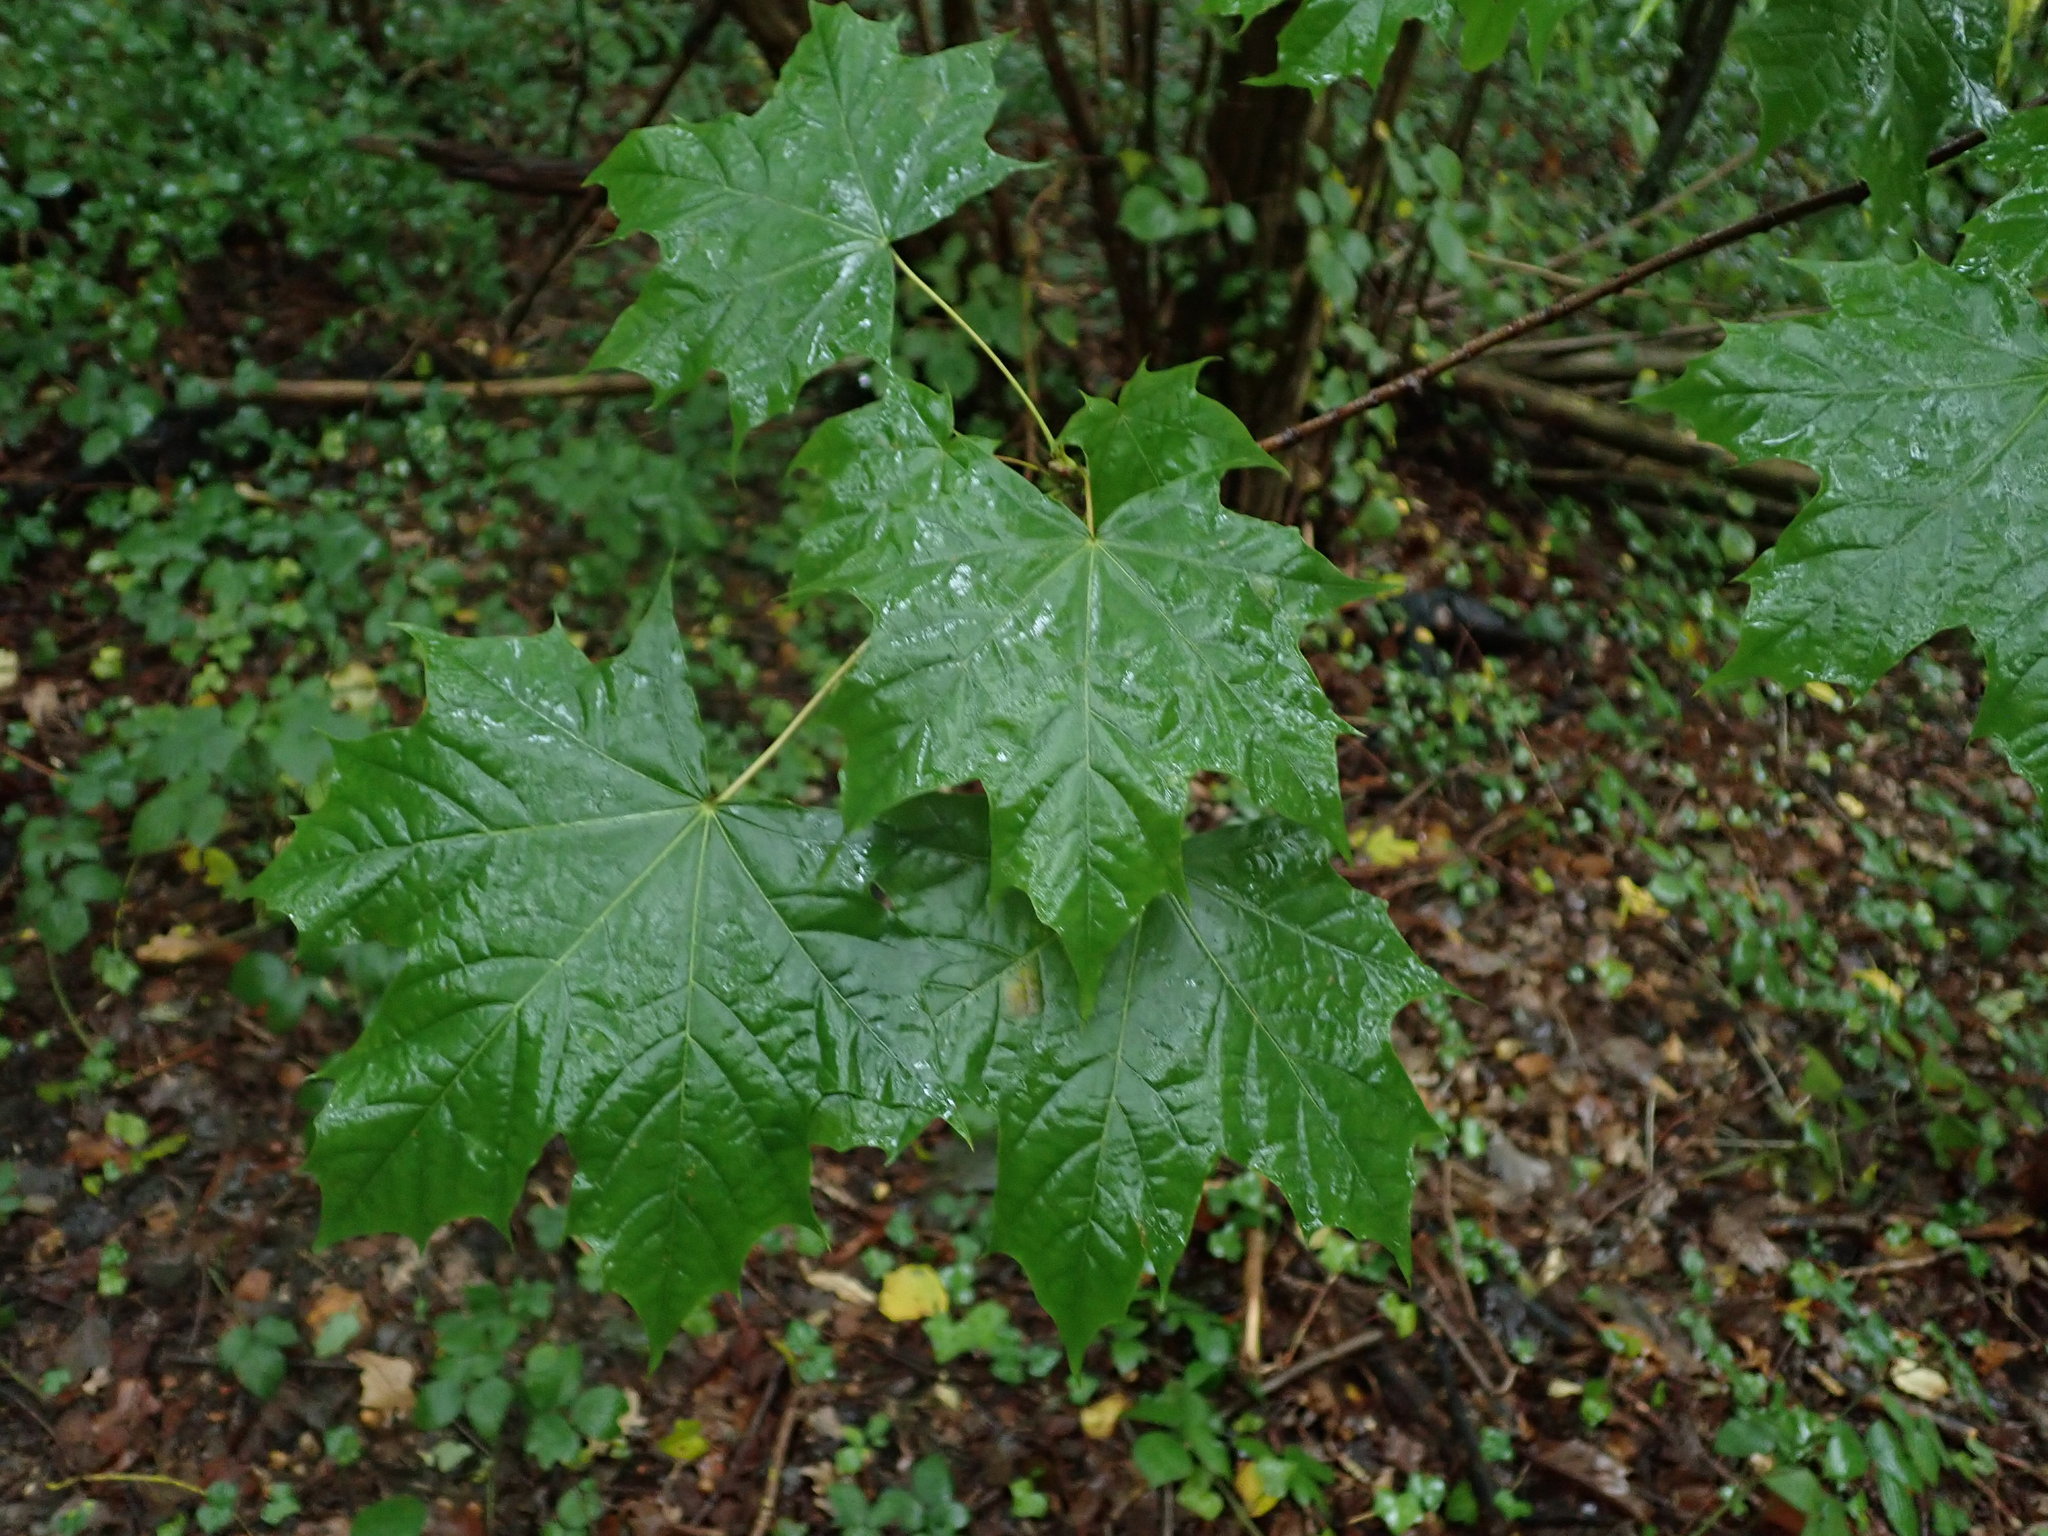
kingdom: Plantae
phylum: Tracheophyta
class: Magnoliopsida
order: Sapindales
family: Sapindaceae
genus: Acer
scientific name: Acer platanoides
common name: Norway maple
